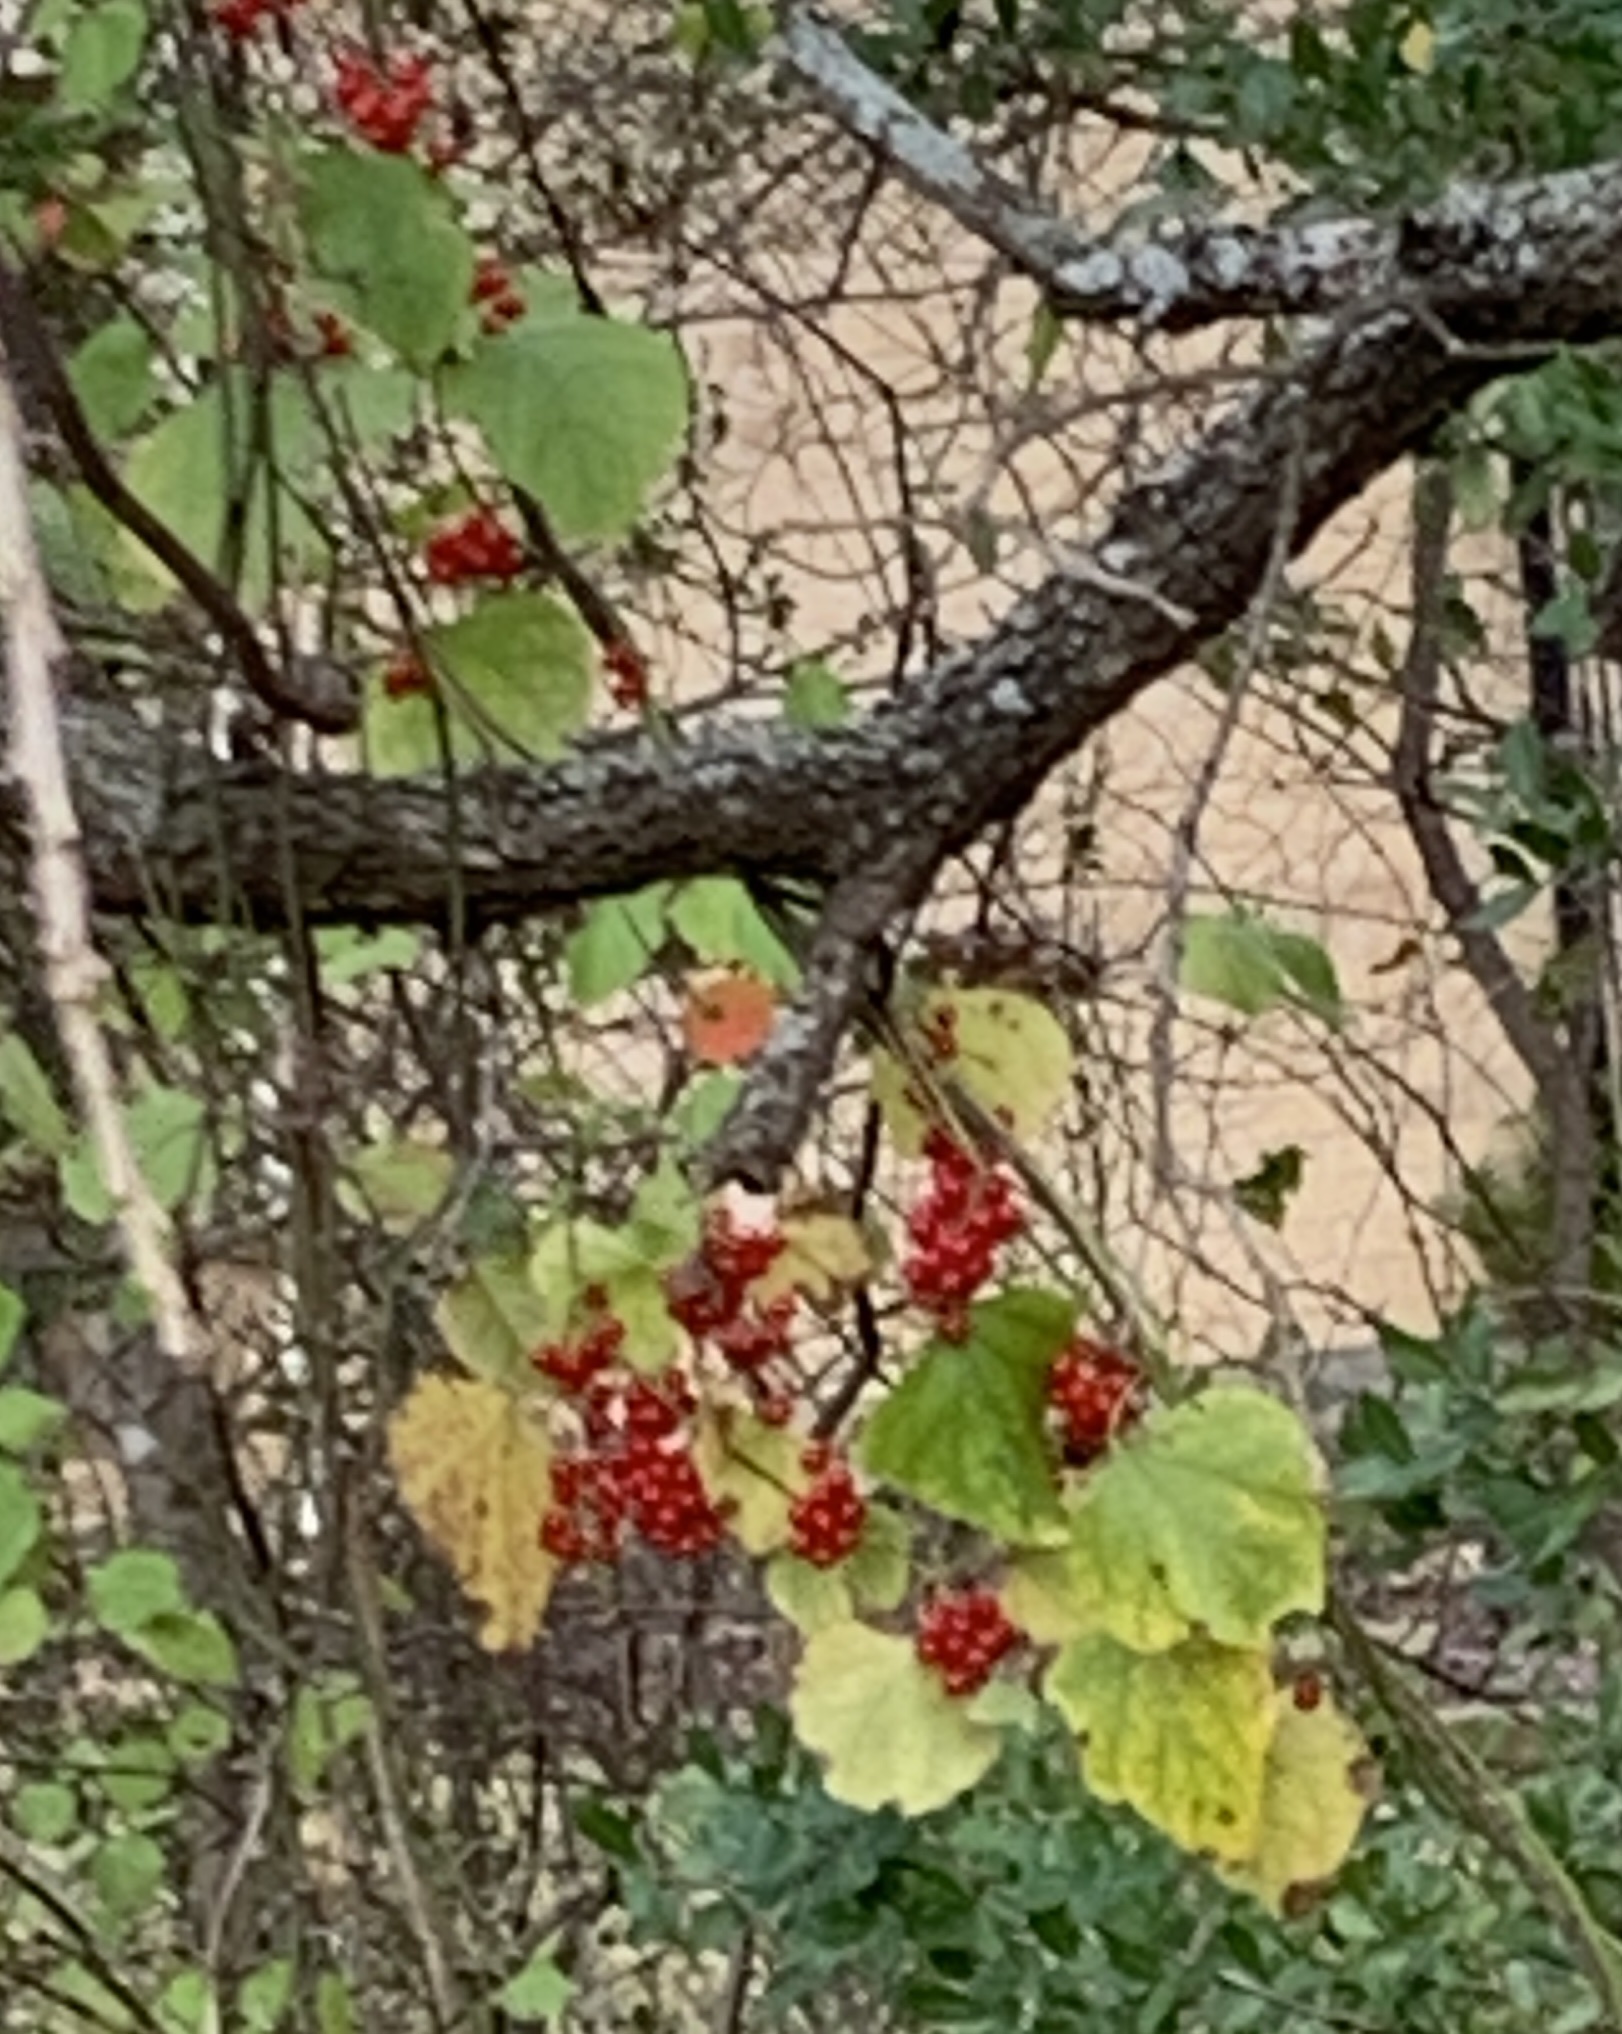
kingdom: Plantae
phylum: Tracheophyta
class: Magnoliopsida
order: Ranunculales
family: Menispermaceae
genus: Cocculus
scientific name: Cocculus carolinus
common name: Carolina moonseed
